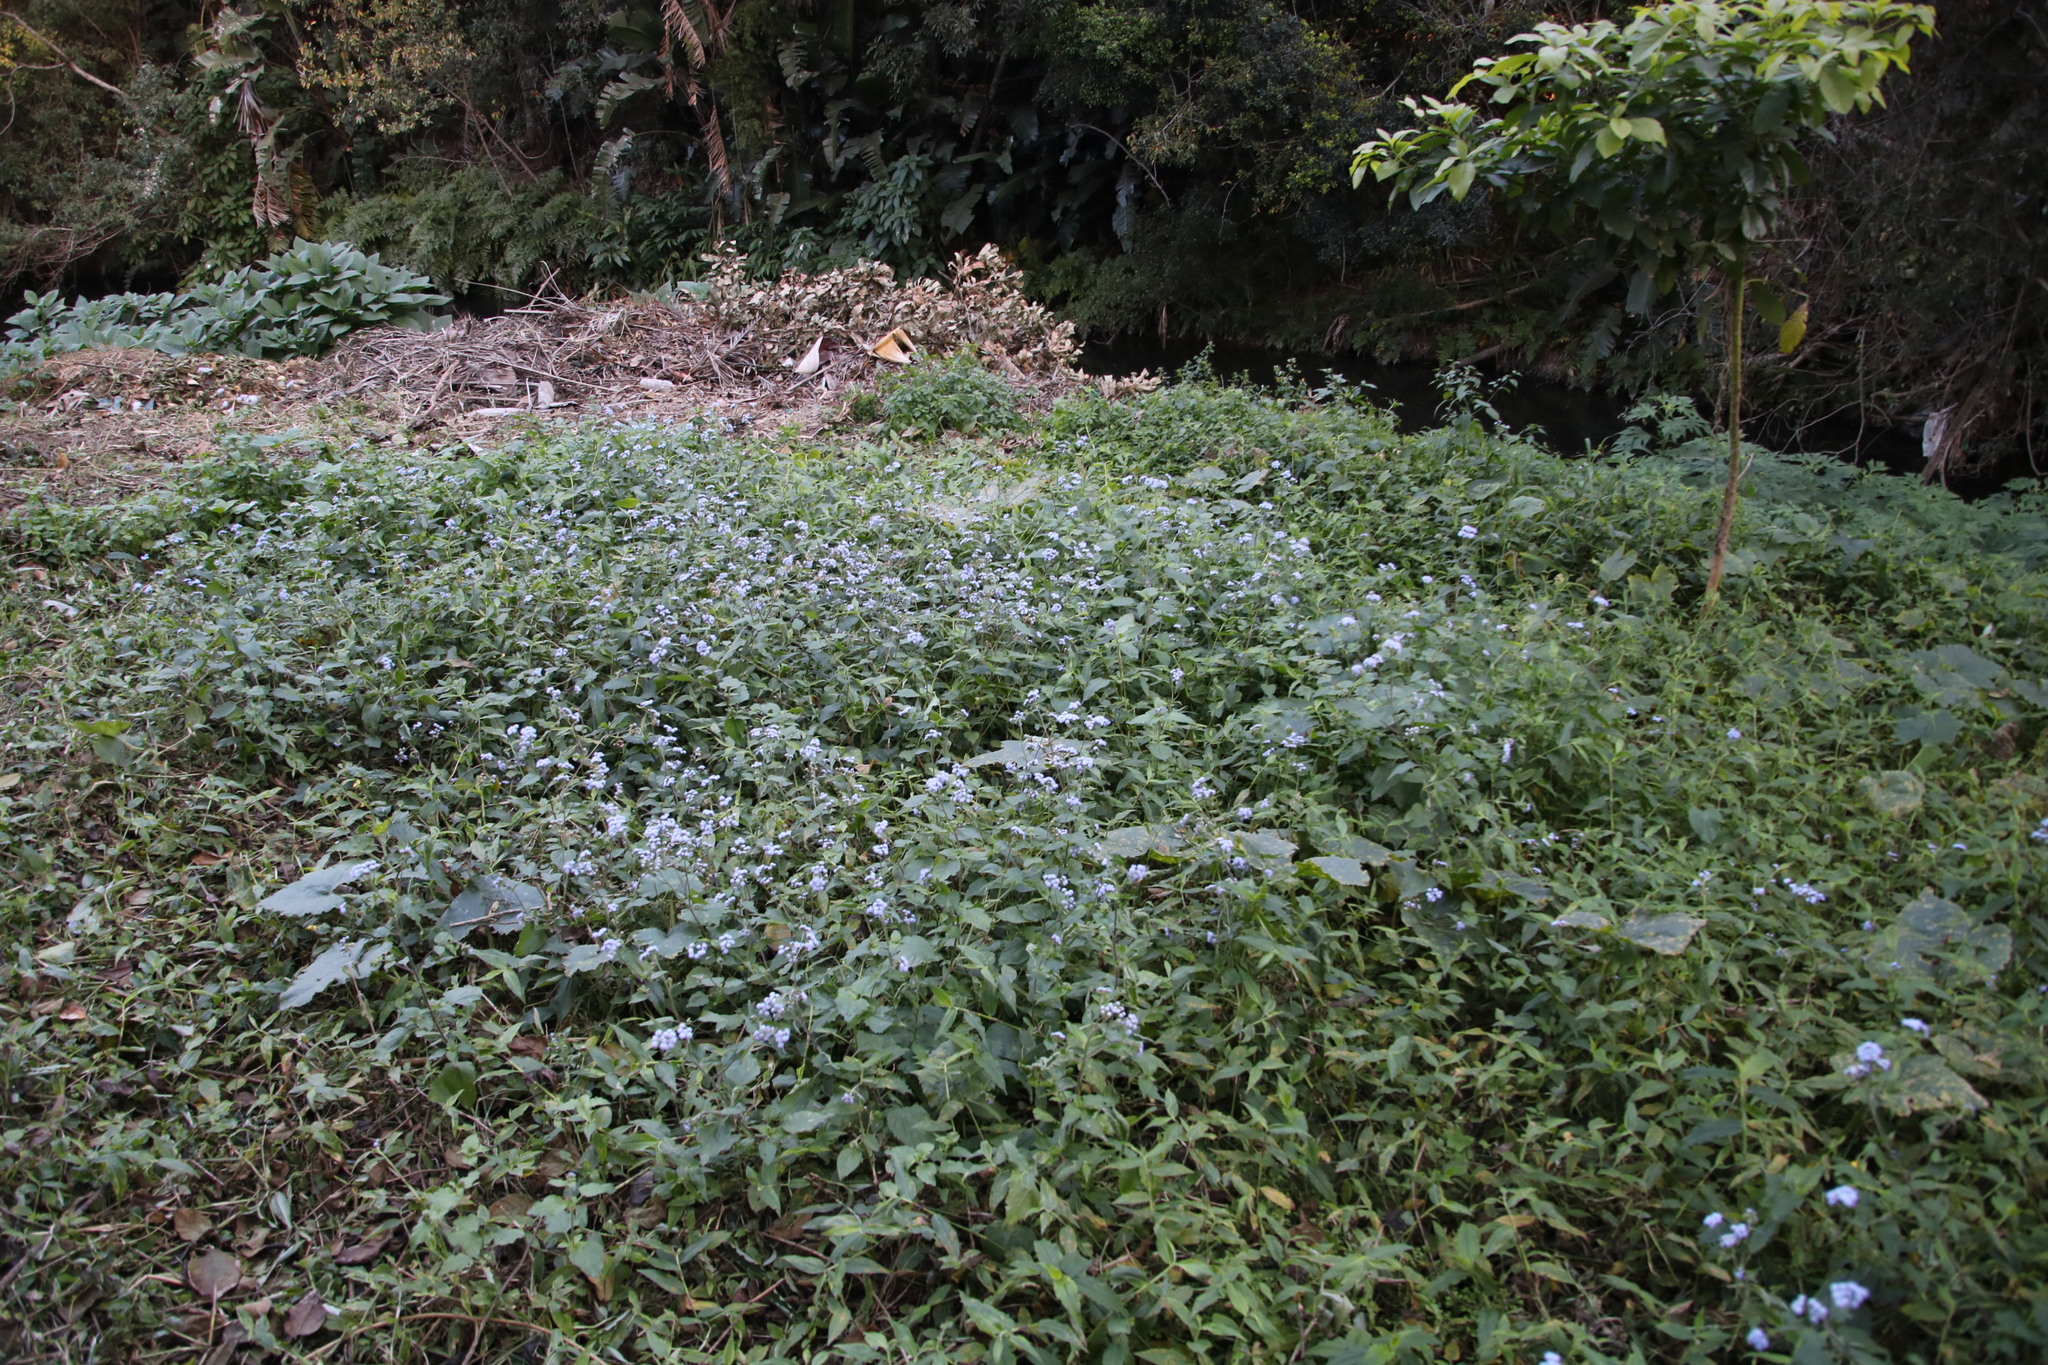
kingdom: Plantae
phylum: Tracheophyta
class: Magnoliopsida
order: Asterales
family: Asteraceae
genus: Ageratum
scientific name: Ageratum houstonianum
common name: Bluemink
